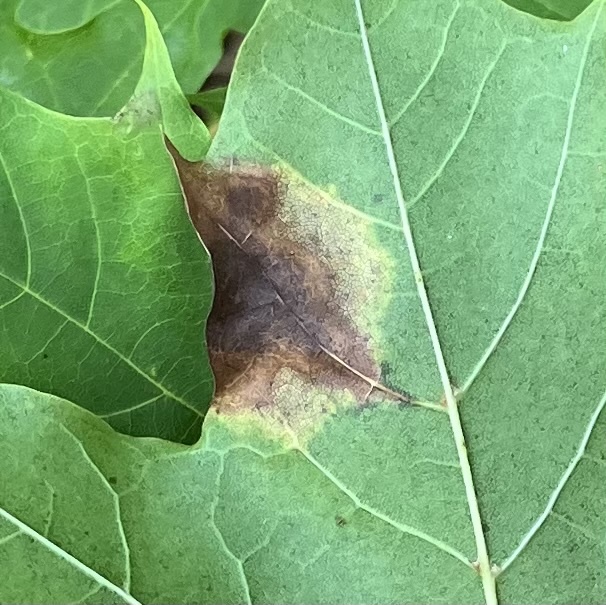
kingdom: Fungi
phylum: Ascomycota
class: Leotiomycetes
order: Rhytismatales
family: Rhytismataceae
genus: Rhytisma
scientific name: Rhytisma acerinum
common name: European tar spot
